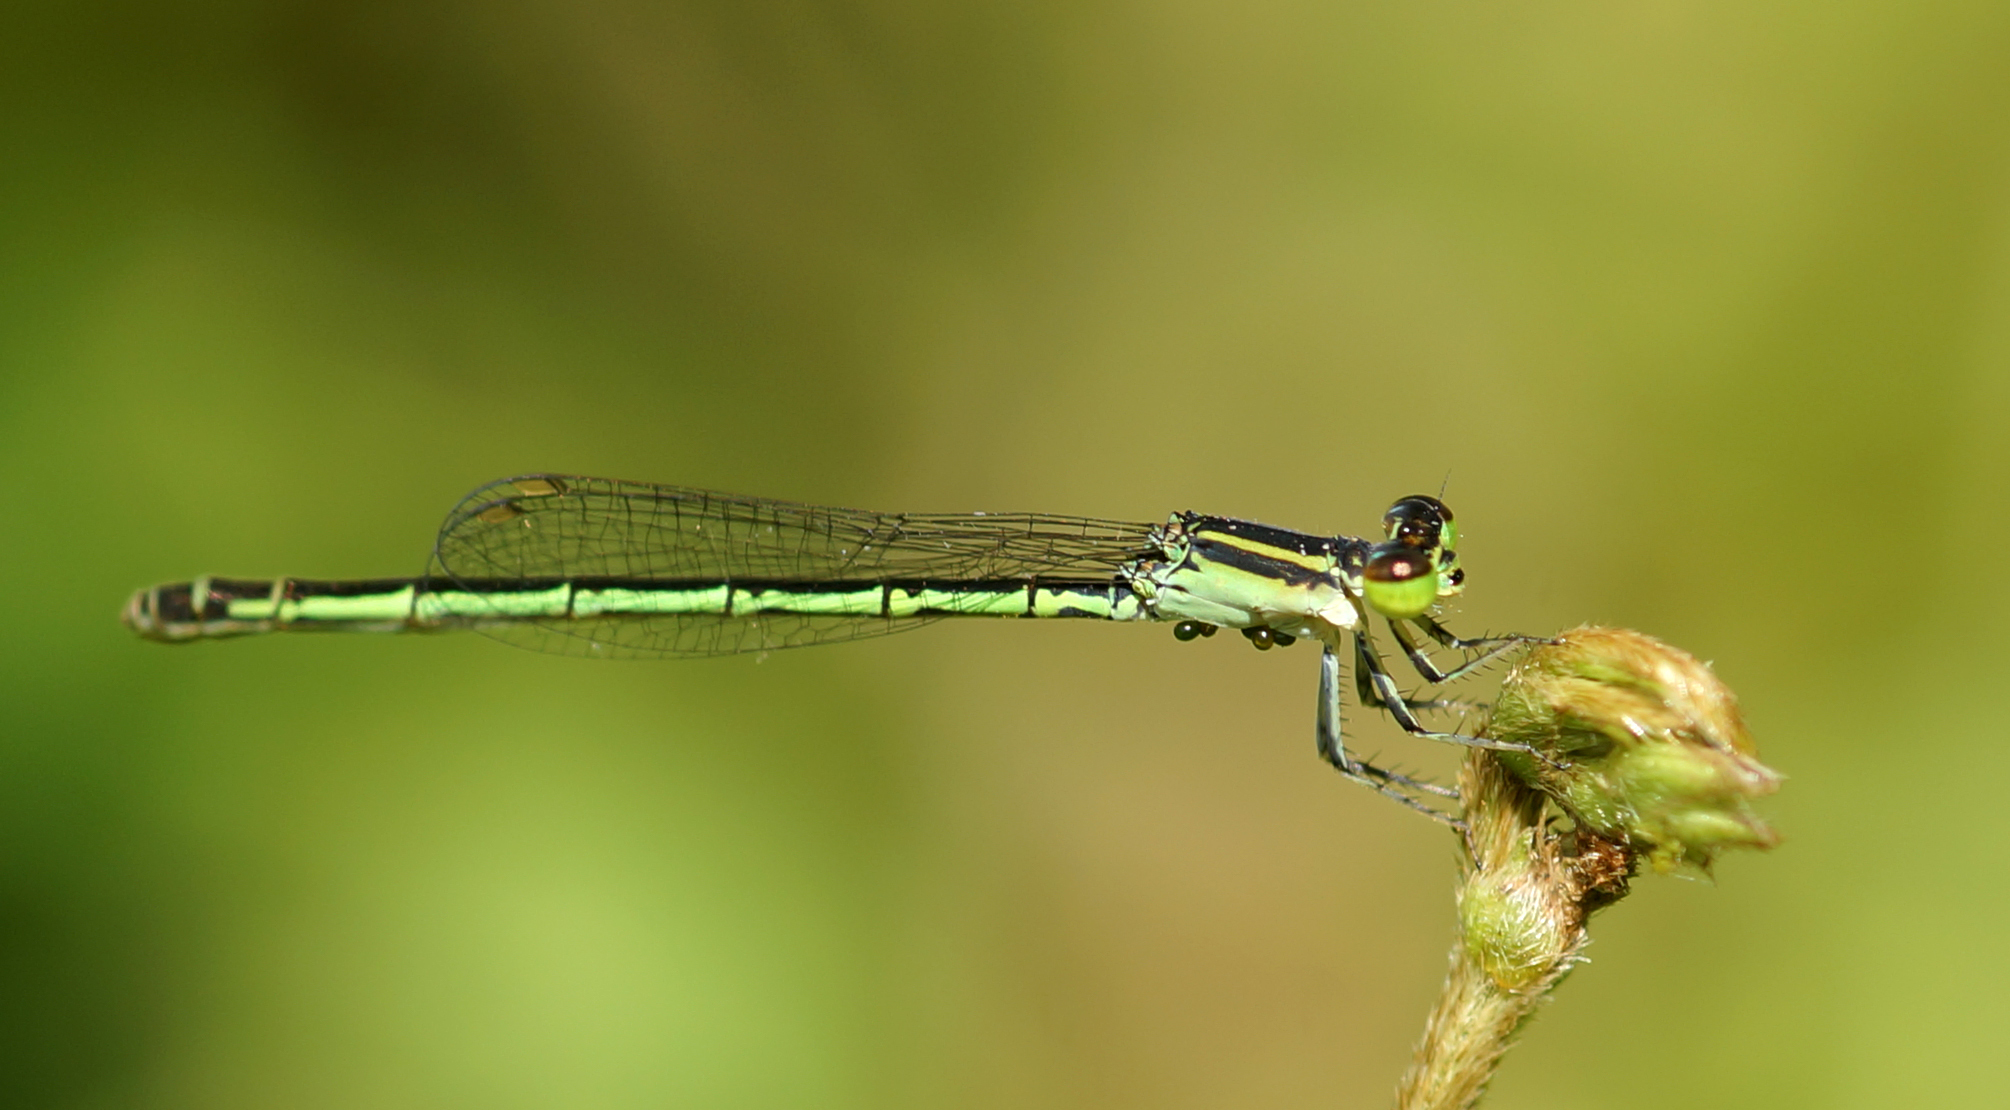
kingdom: Animalia
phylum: Arthropoda
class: Insecta
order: Odonata
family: Coenagrionidae
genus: Agriocnemis
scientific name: Agriocnemis minima
